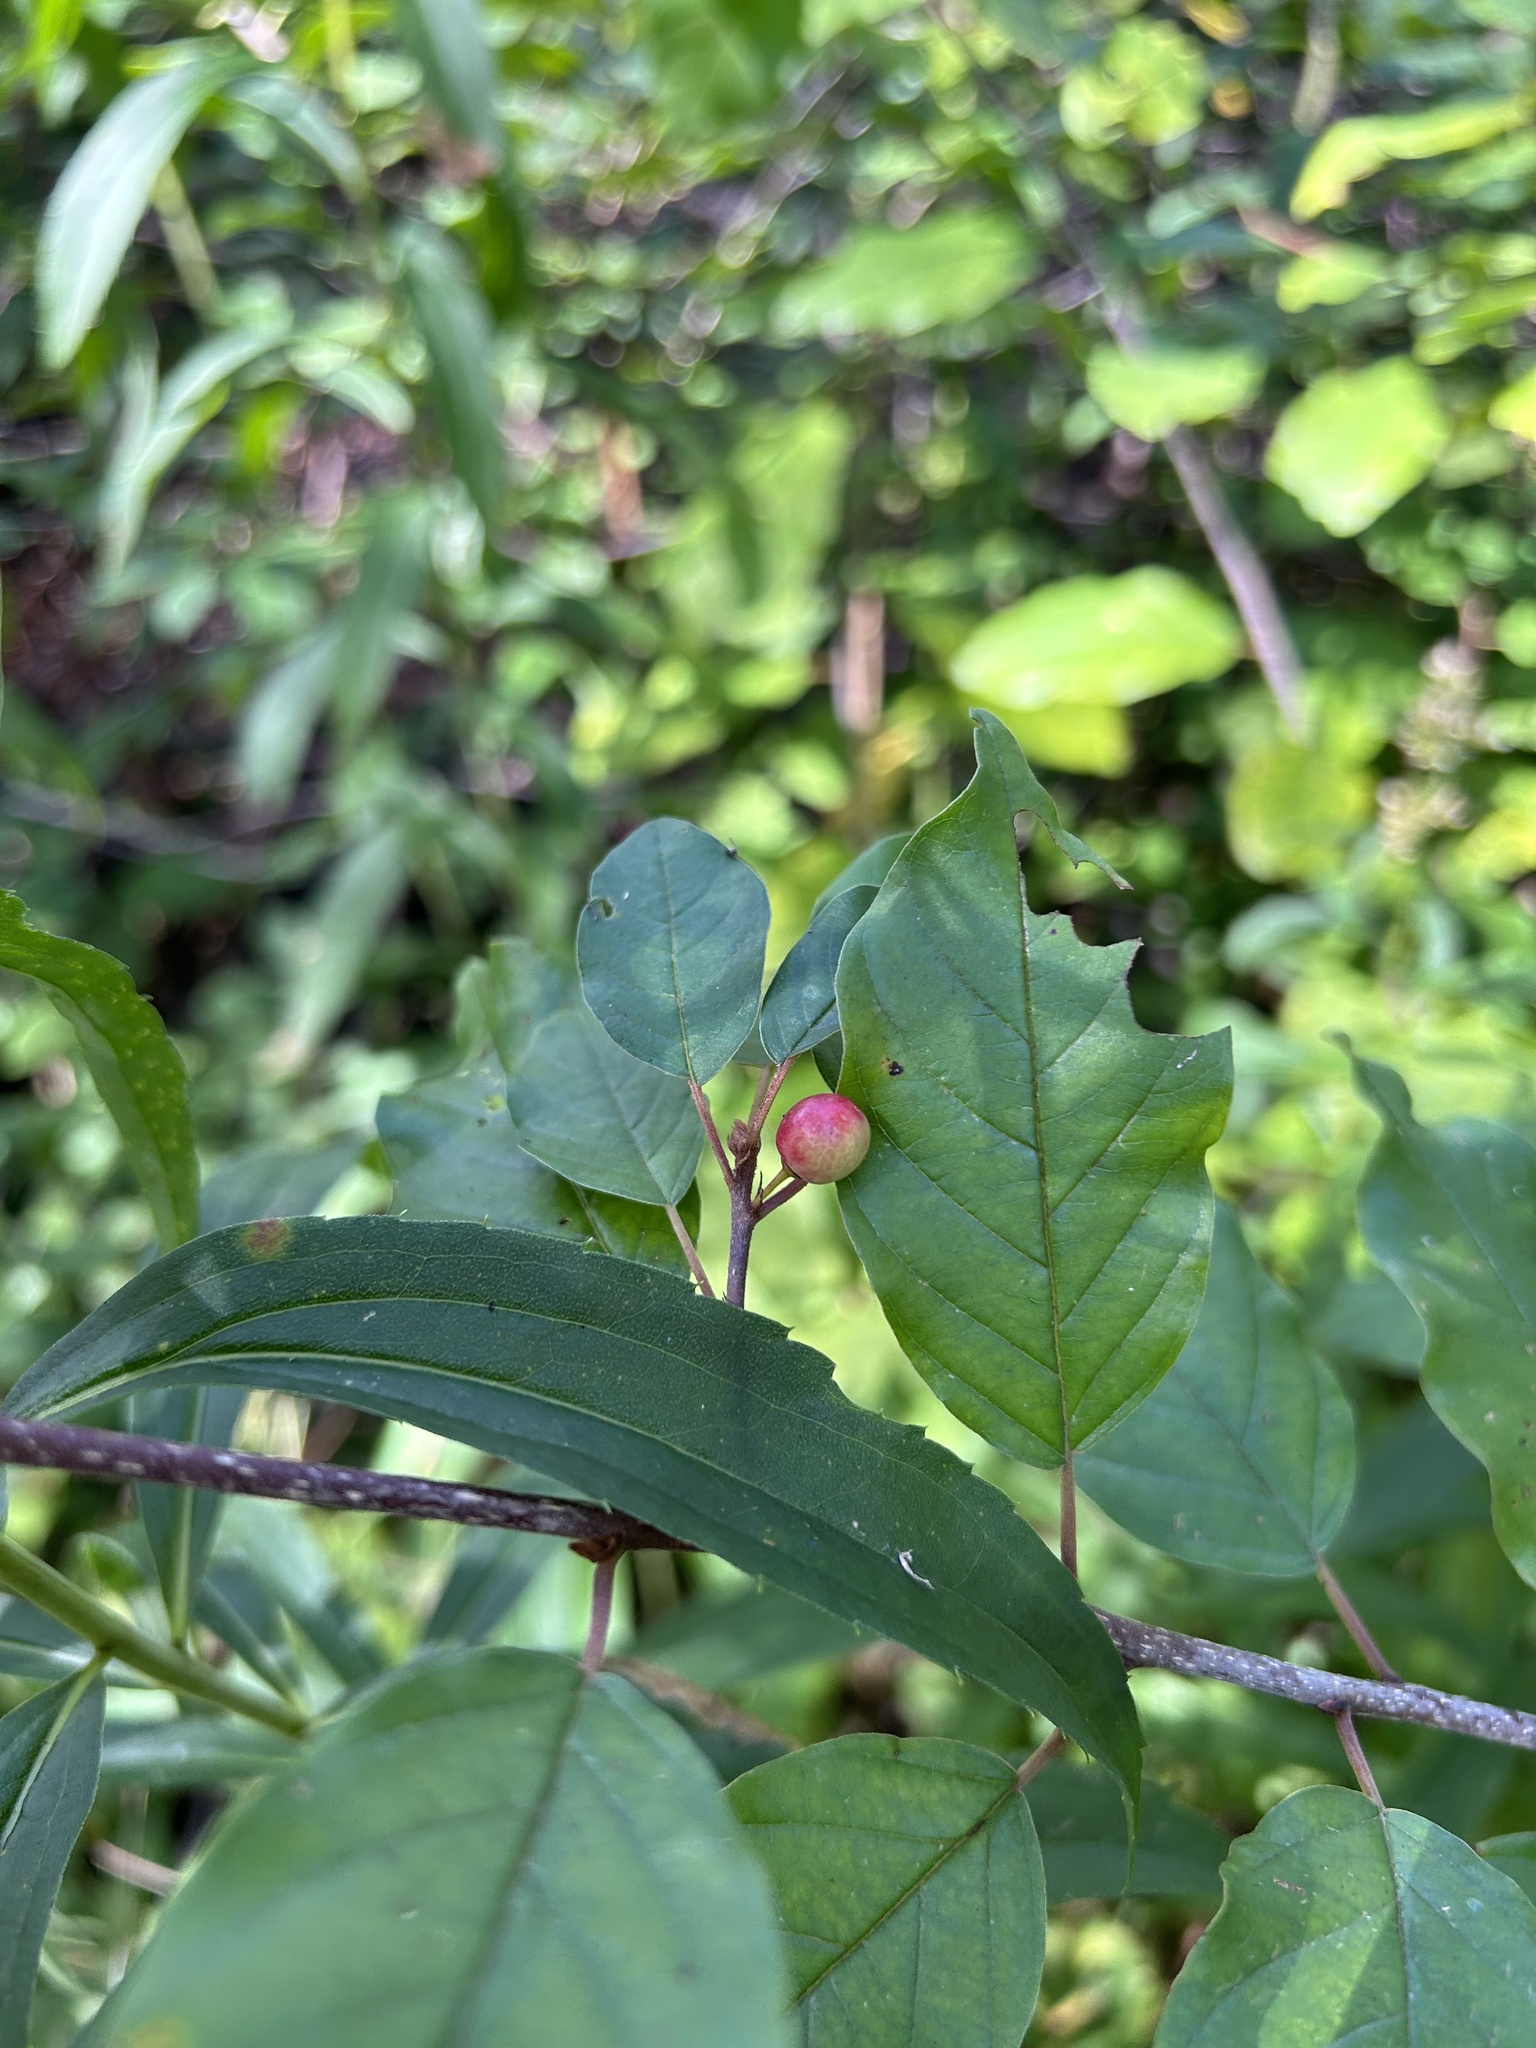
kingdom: Plantae
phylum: Tracheophyta
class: Magnoliopsida
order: Rosales
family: Rhamnaceae
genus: Frangula
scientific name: Frangula alnus
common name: Alder buckthorn
